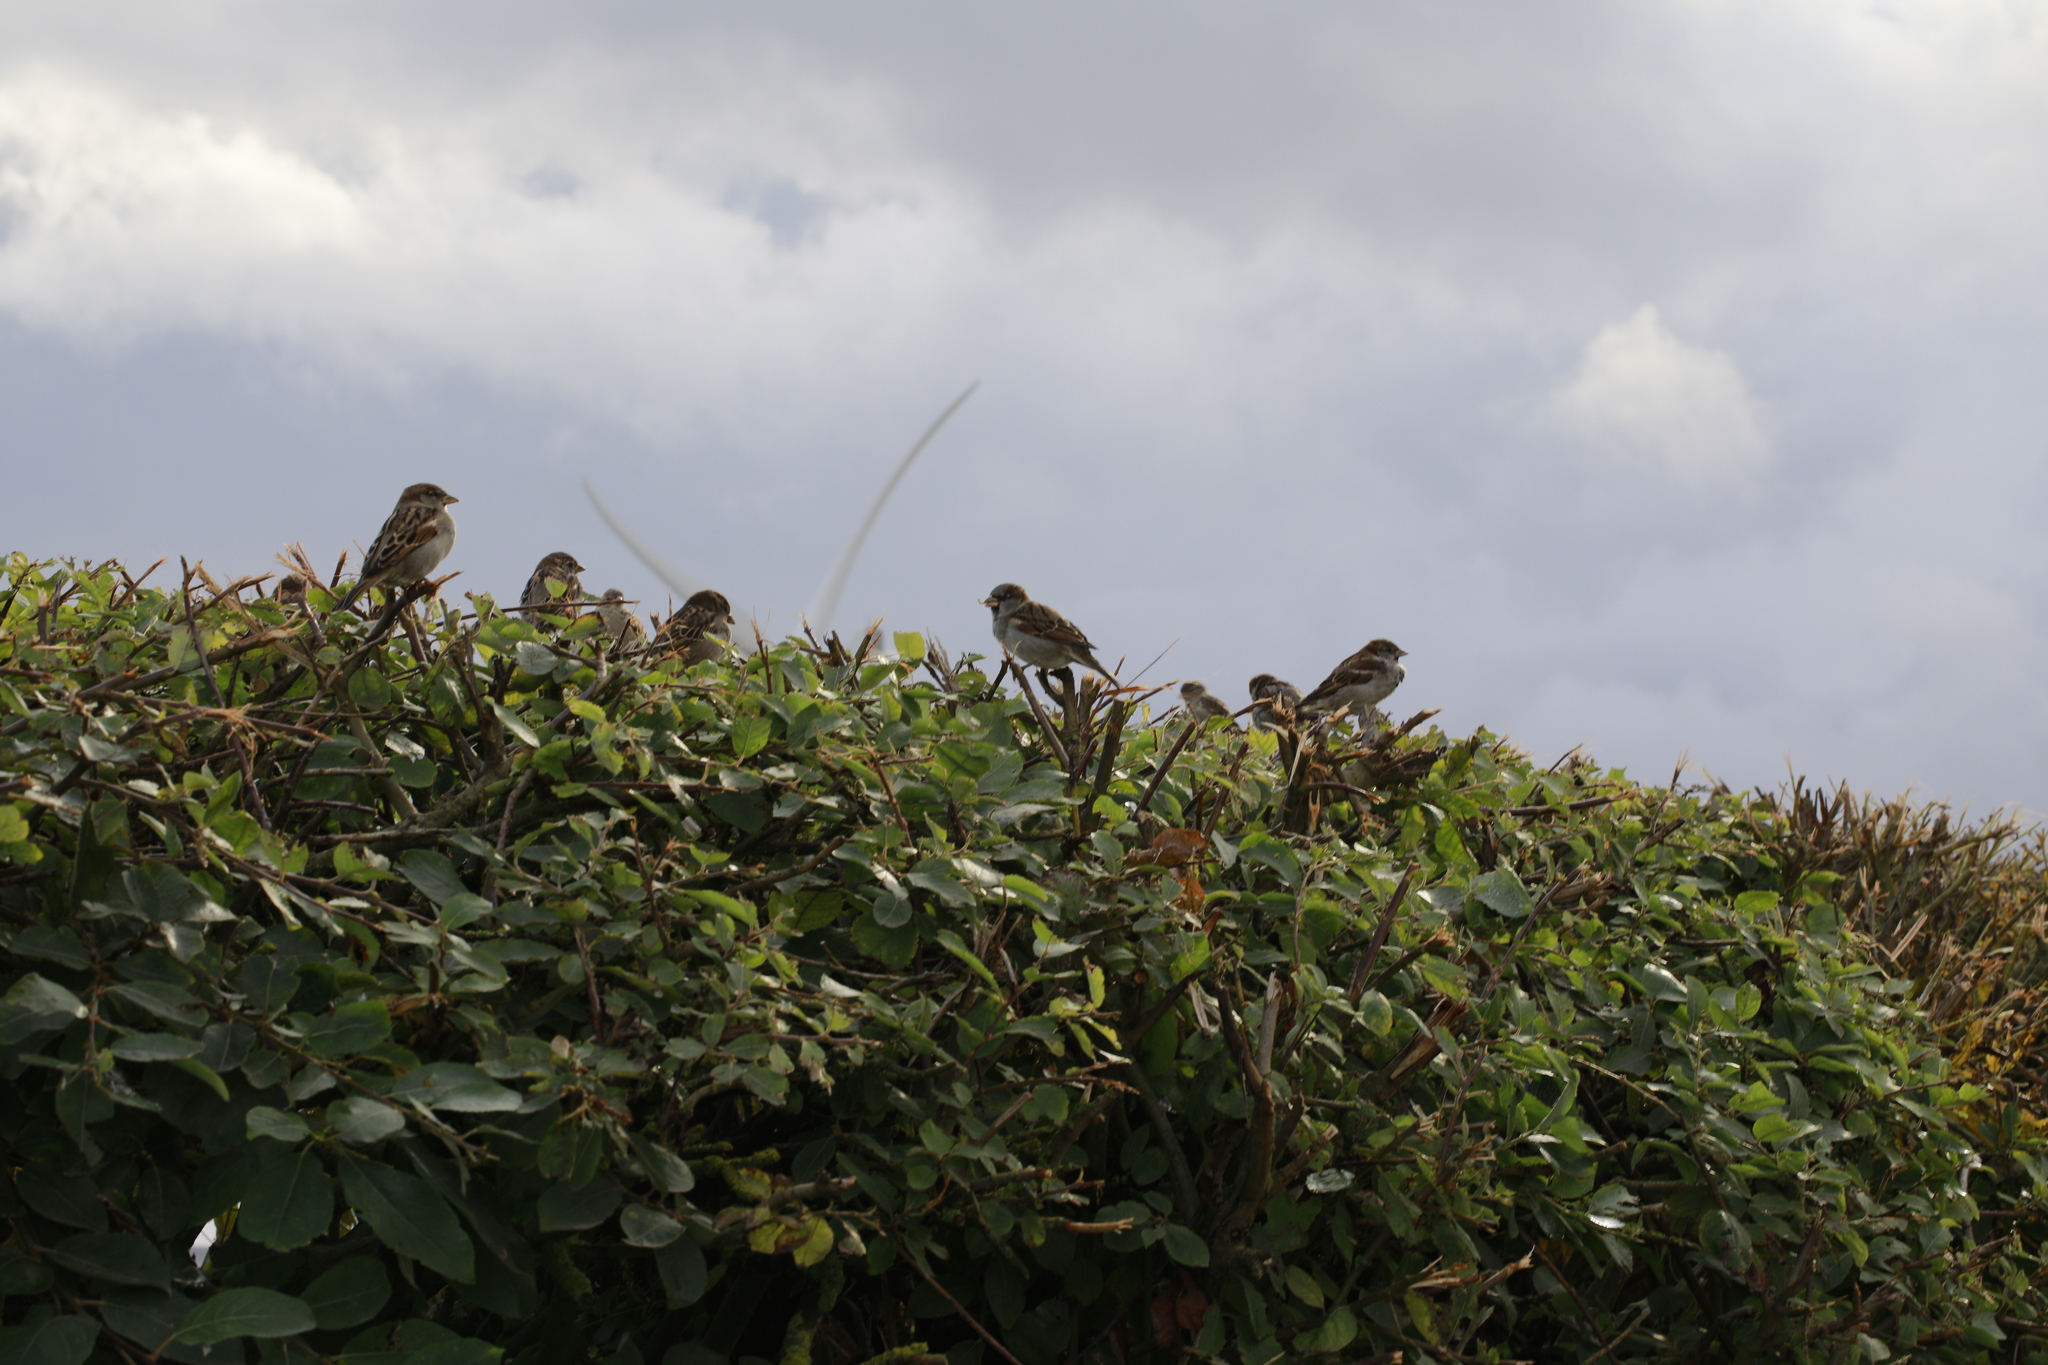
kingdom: Animalia
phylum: Chordata
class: Aves
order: Passeriformes
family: Passeridae
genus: Passer
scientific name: Passer domesticus
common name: House sparrow
